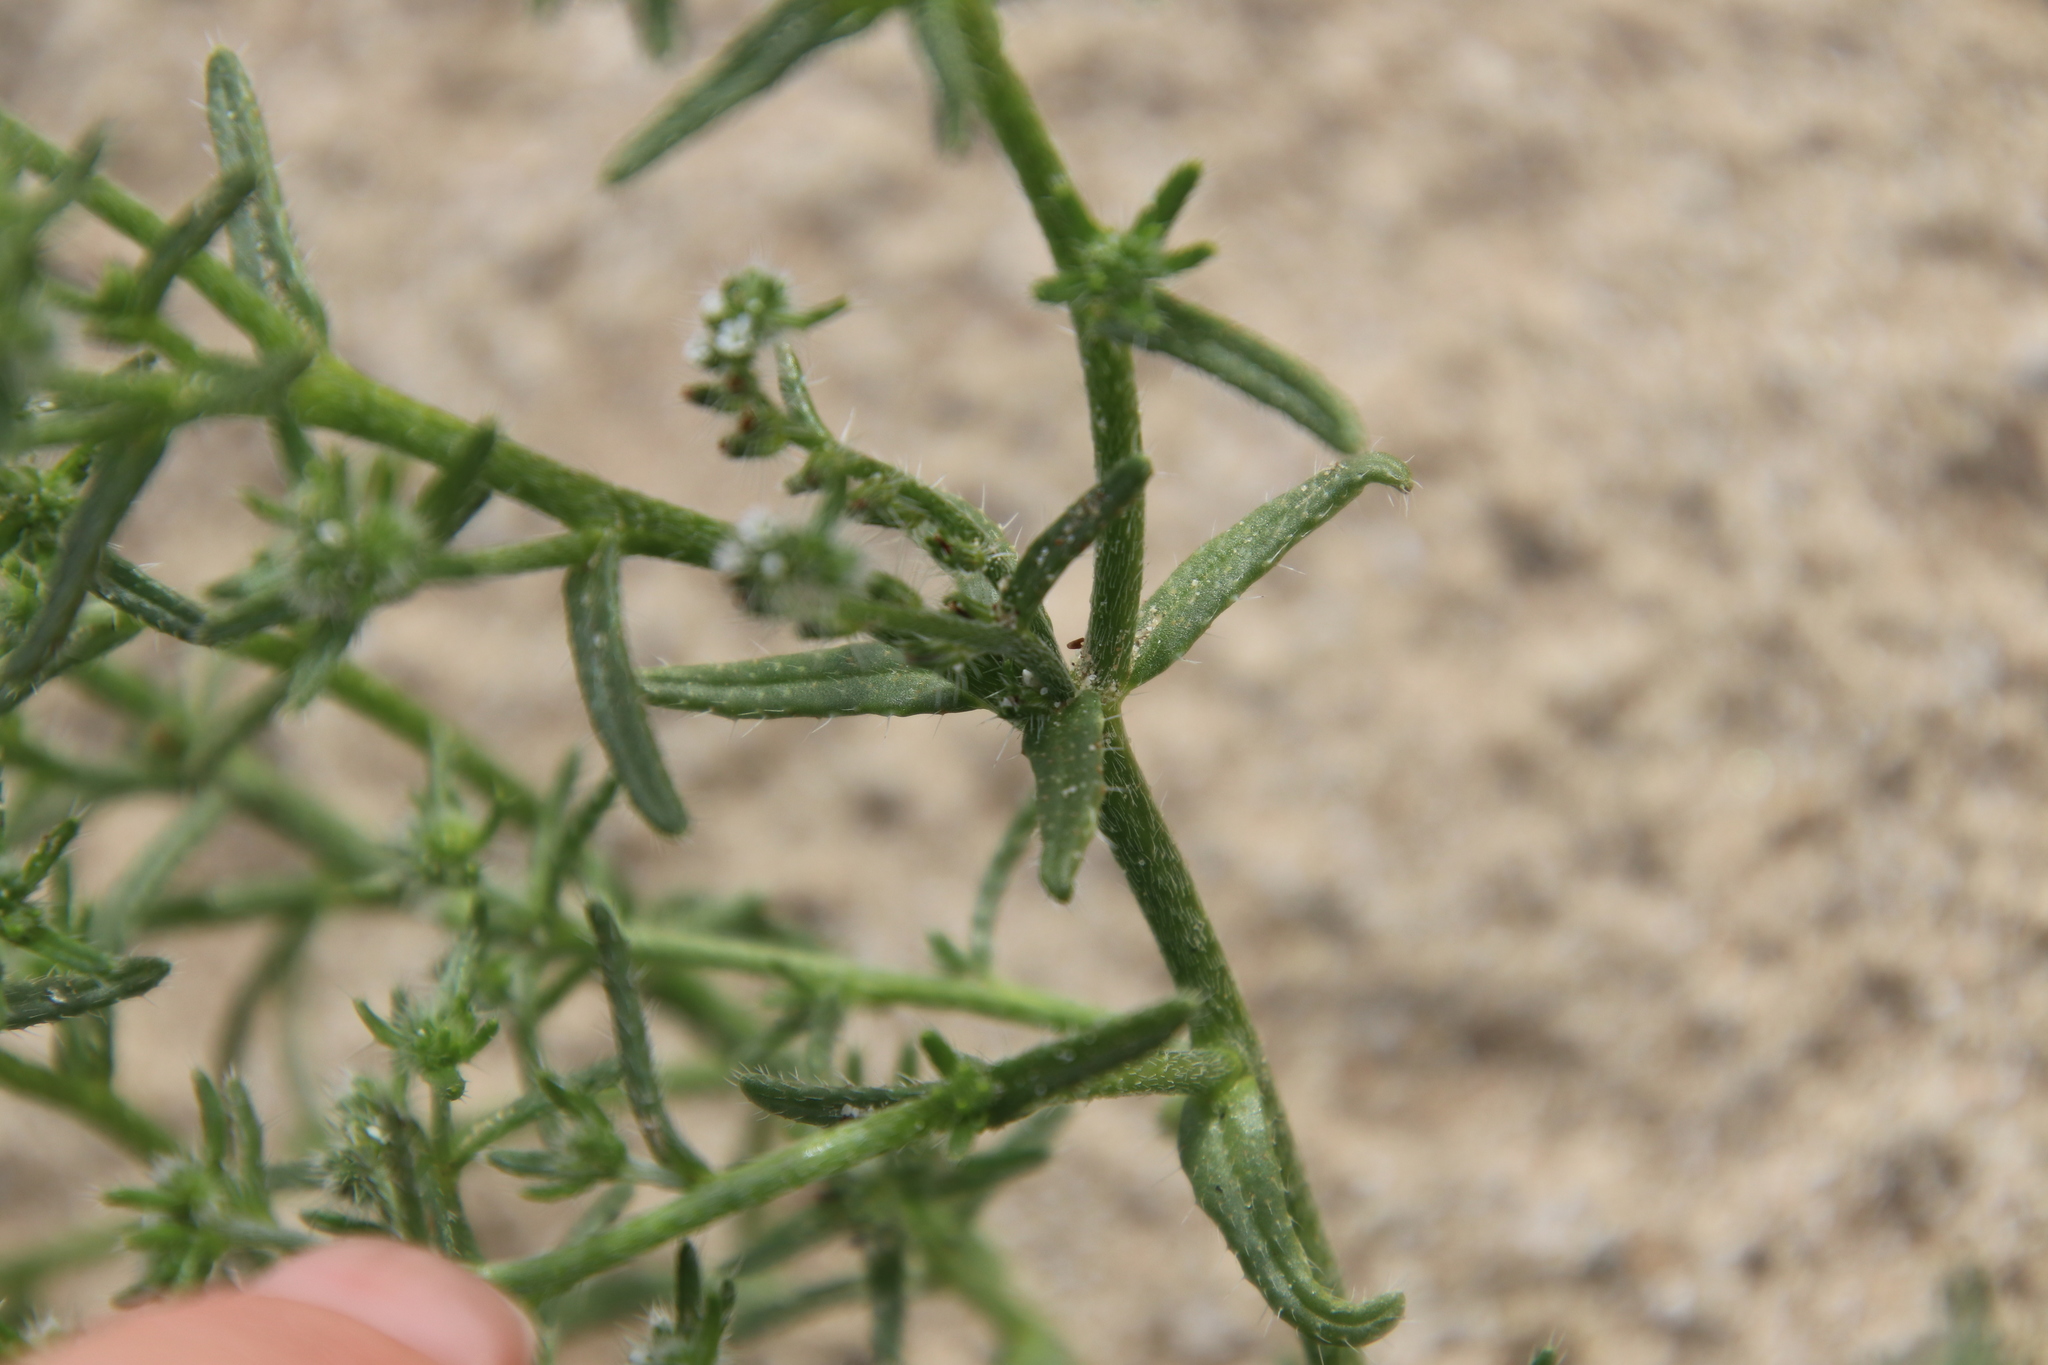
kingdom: Plantae
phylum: Tracheophyta
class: Magnoliopsida
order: Boraginales
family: Boraginaceae
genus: Cryptantha
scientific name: Cryptantha maritima
